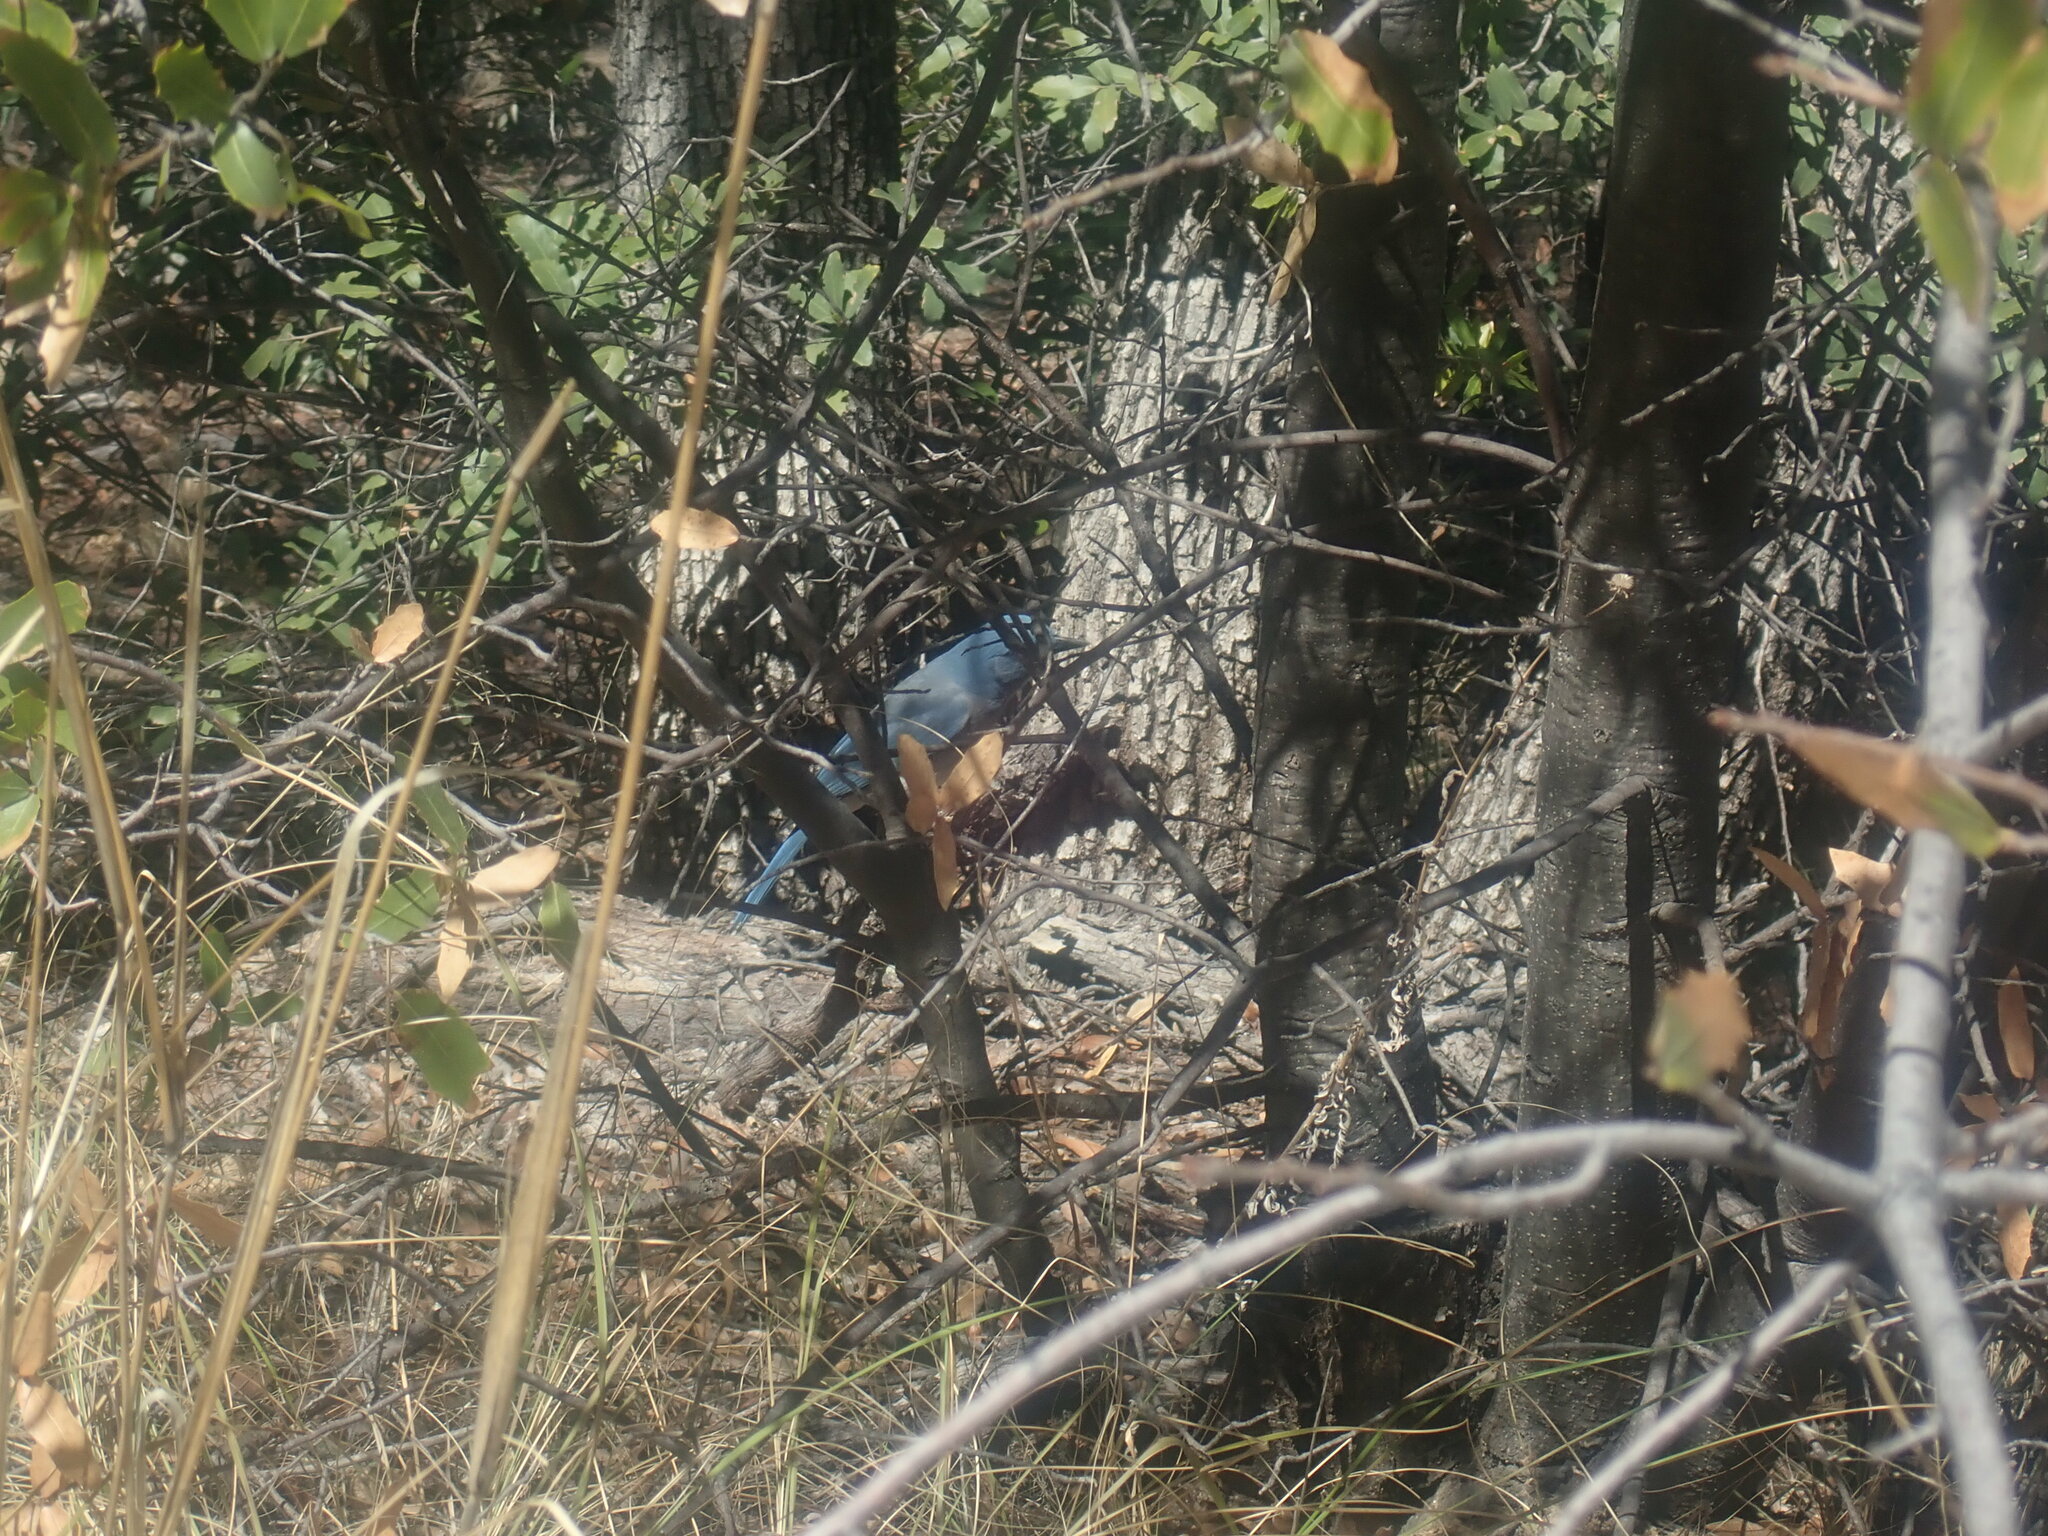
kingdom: Animalia
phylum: Chordata
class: Aves
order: Passeriformes
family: Corvidae
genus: Aphelocoma
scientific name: Aphelocoma wollweberi
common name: Mexican jay
